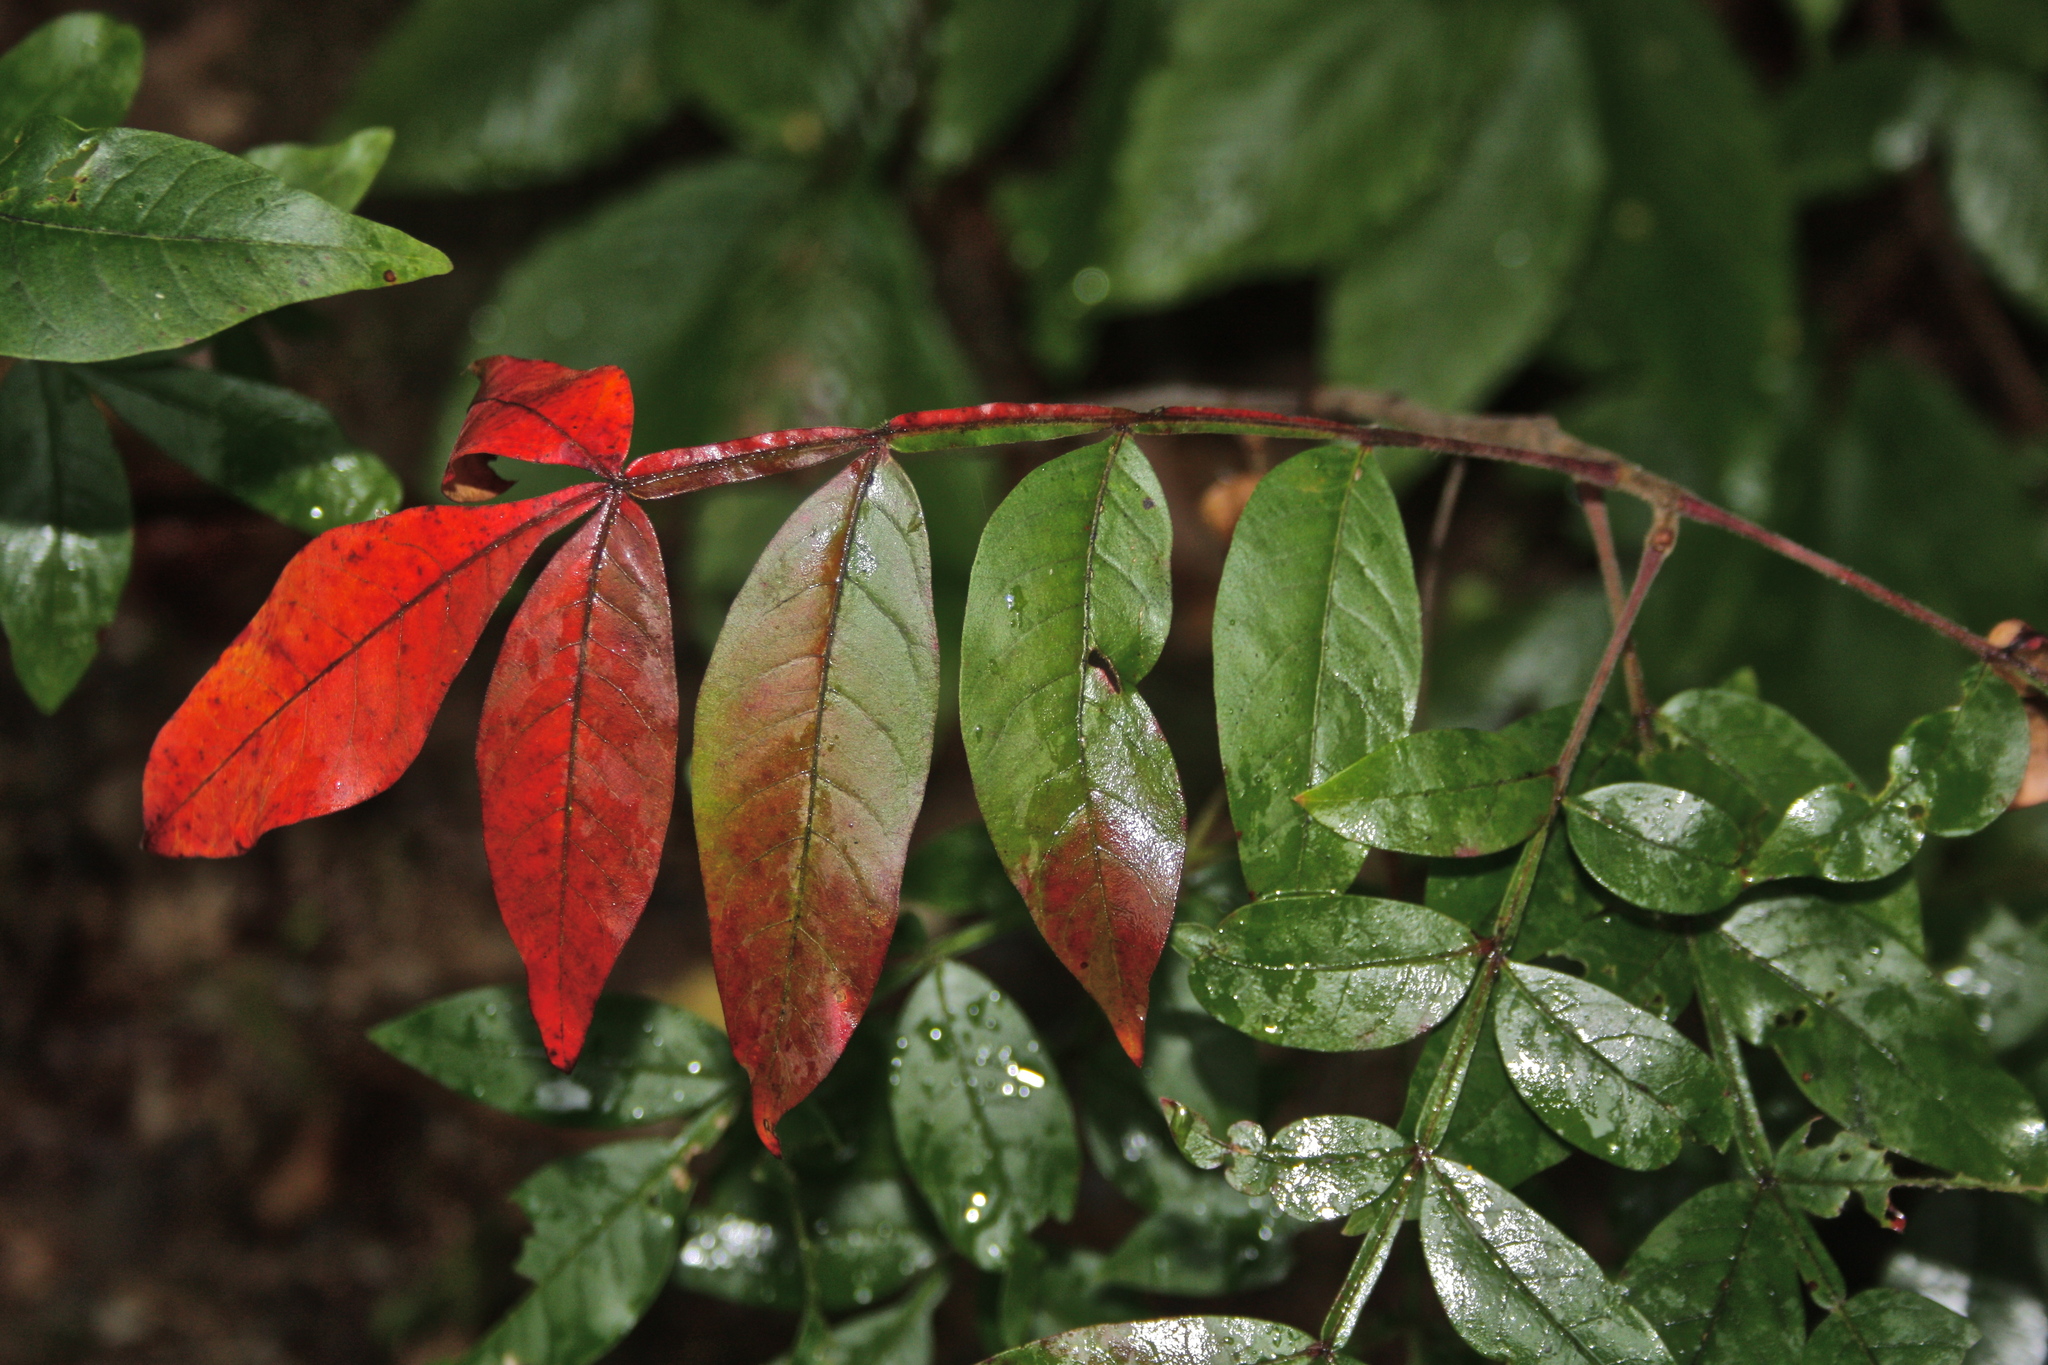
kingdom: Plantae
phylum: Tracheophyta
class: Magnoliopsida
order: Sapindales
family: Anacardiaceae
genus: Rhus
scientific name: Rhus copallina
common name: Shining sumac
